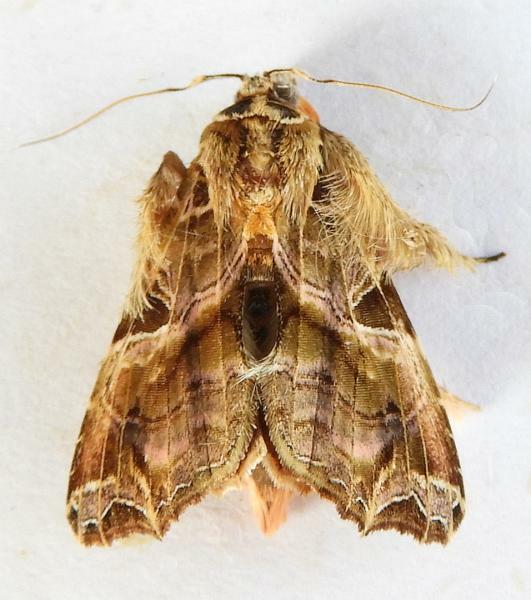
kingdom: Animalia
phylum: Arthropoda
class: Insecta
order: Lepidoptera
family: Noctuidae
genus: Callopistria
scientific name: Callopistria floridensis
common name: Florida fern moth
